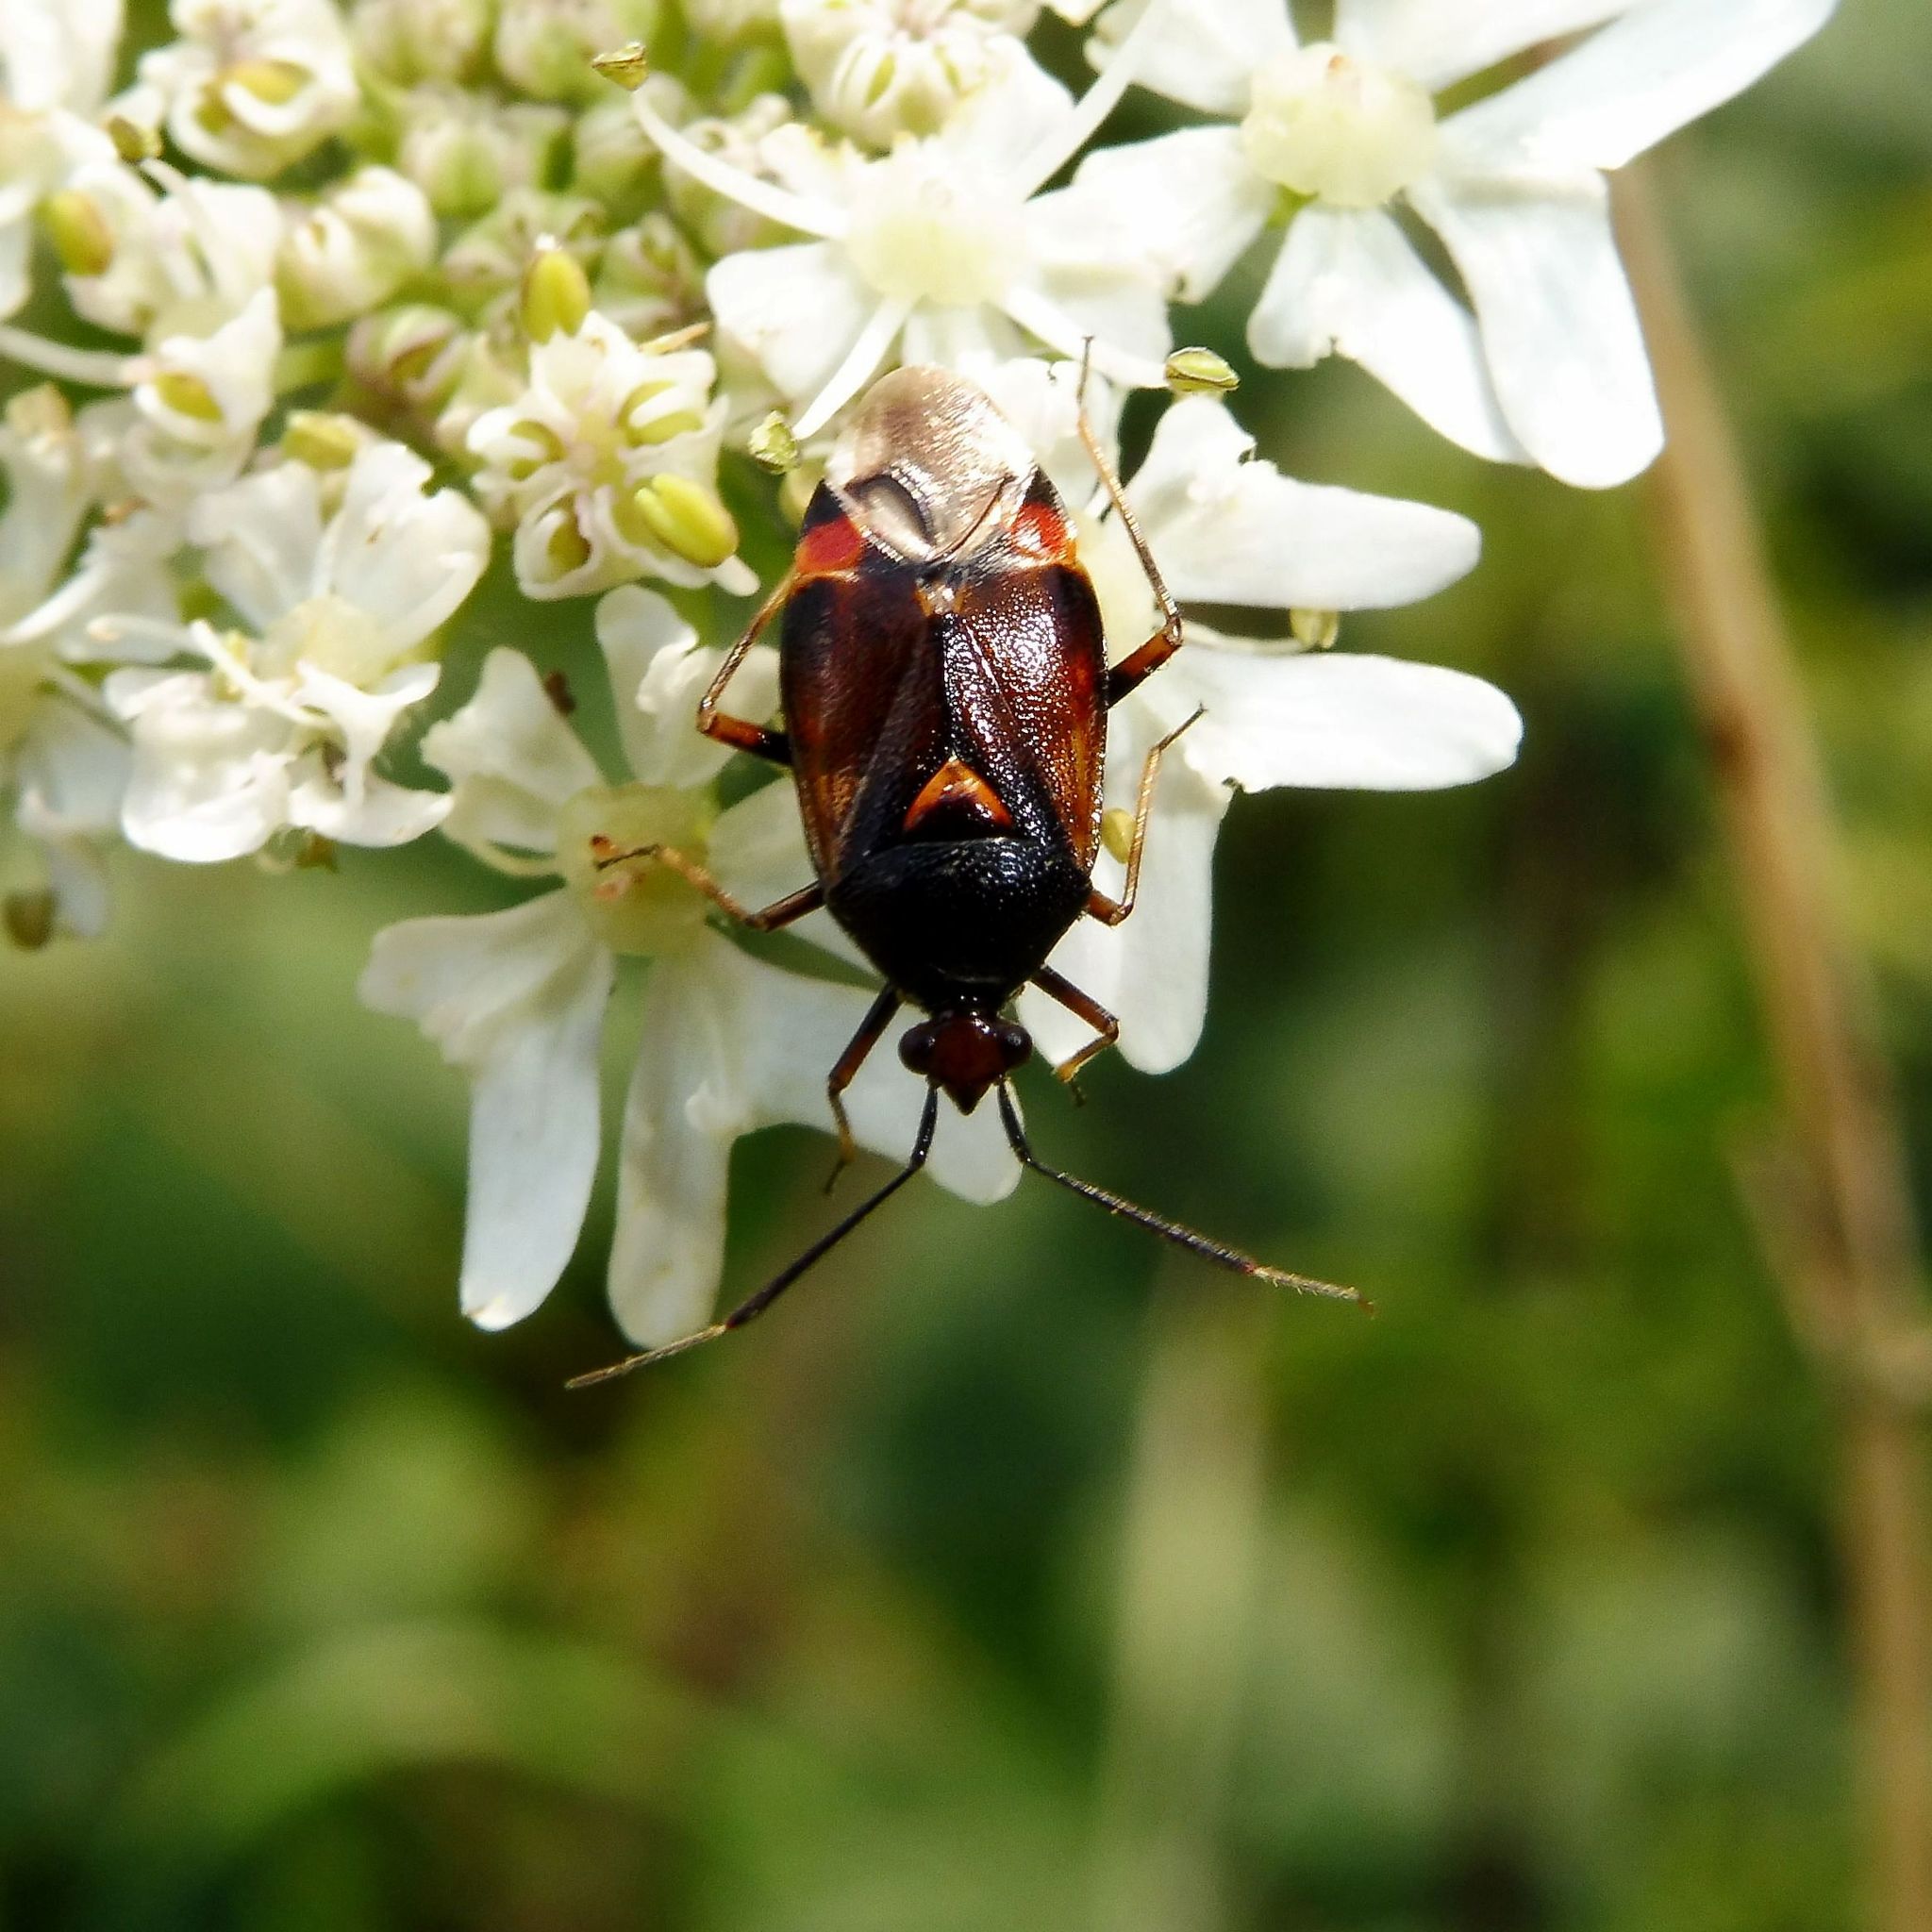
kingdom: Animalia
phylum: Arthropoda
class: Insecta
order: Hemiptera
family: Miridae
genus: Deraeocoris
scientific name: Deraeocoris ruber
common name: Plant bug
